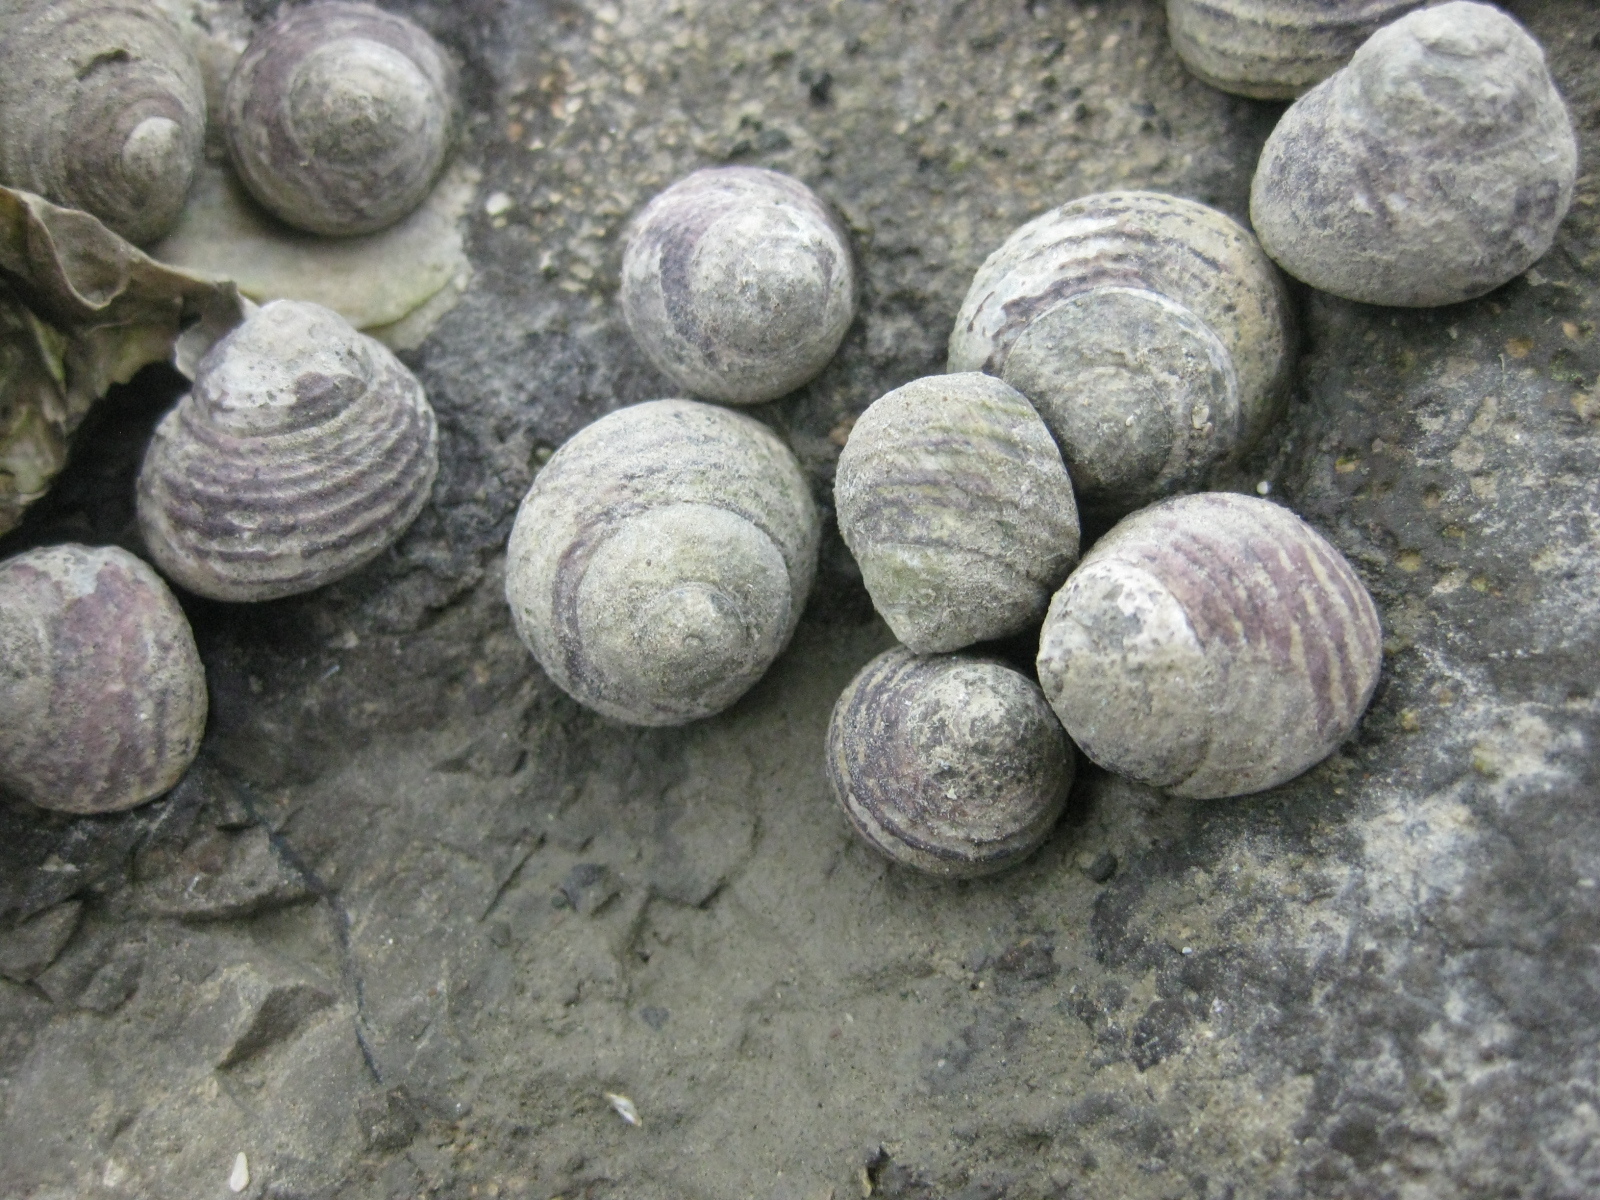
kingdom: Animalia
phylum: Mollusca
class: Gastropoda
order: Trochida
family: Trochidae
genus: Diloma
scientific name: Diloma subrostratum
